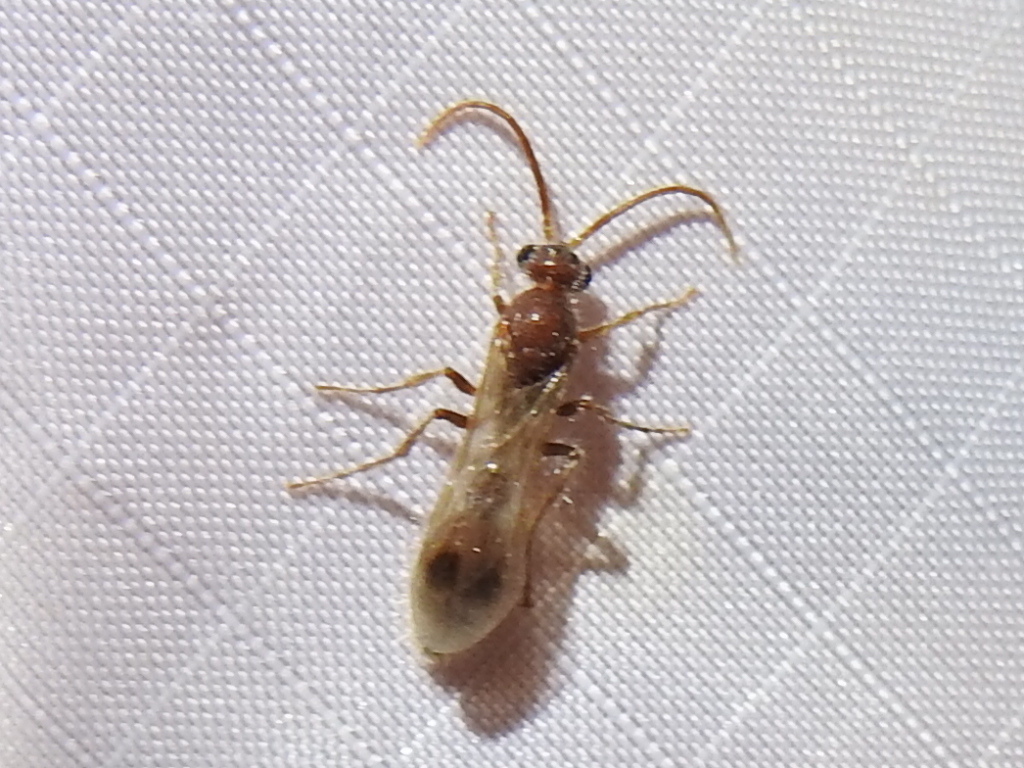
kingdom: Animalia
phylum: Arthropoda
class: Insecta
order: Hymenoptera
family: Chyphotidae
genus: Chyphotes
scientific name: Chyphotes
